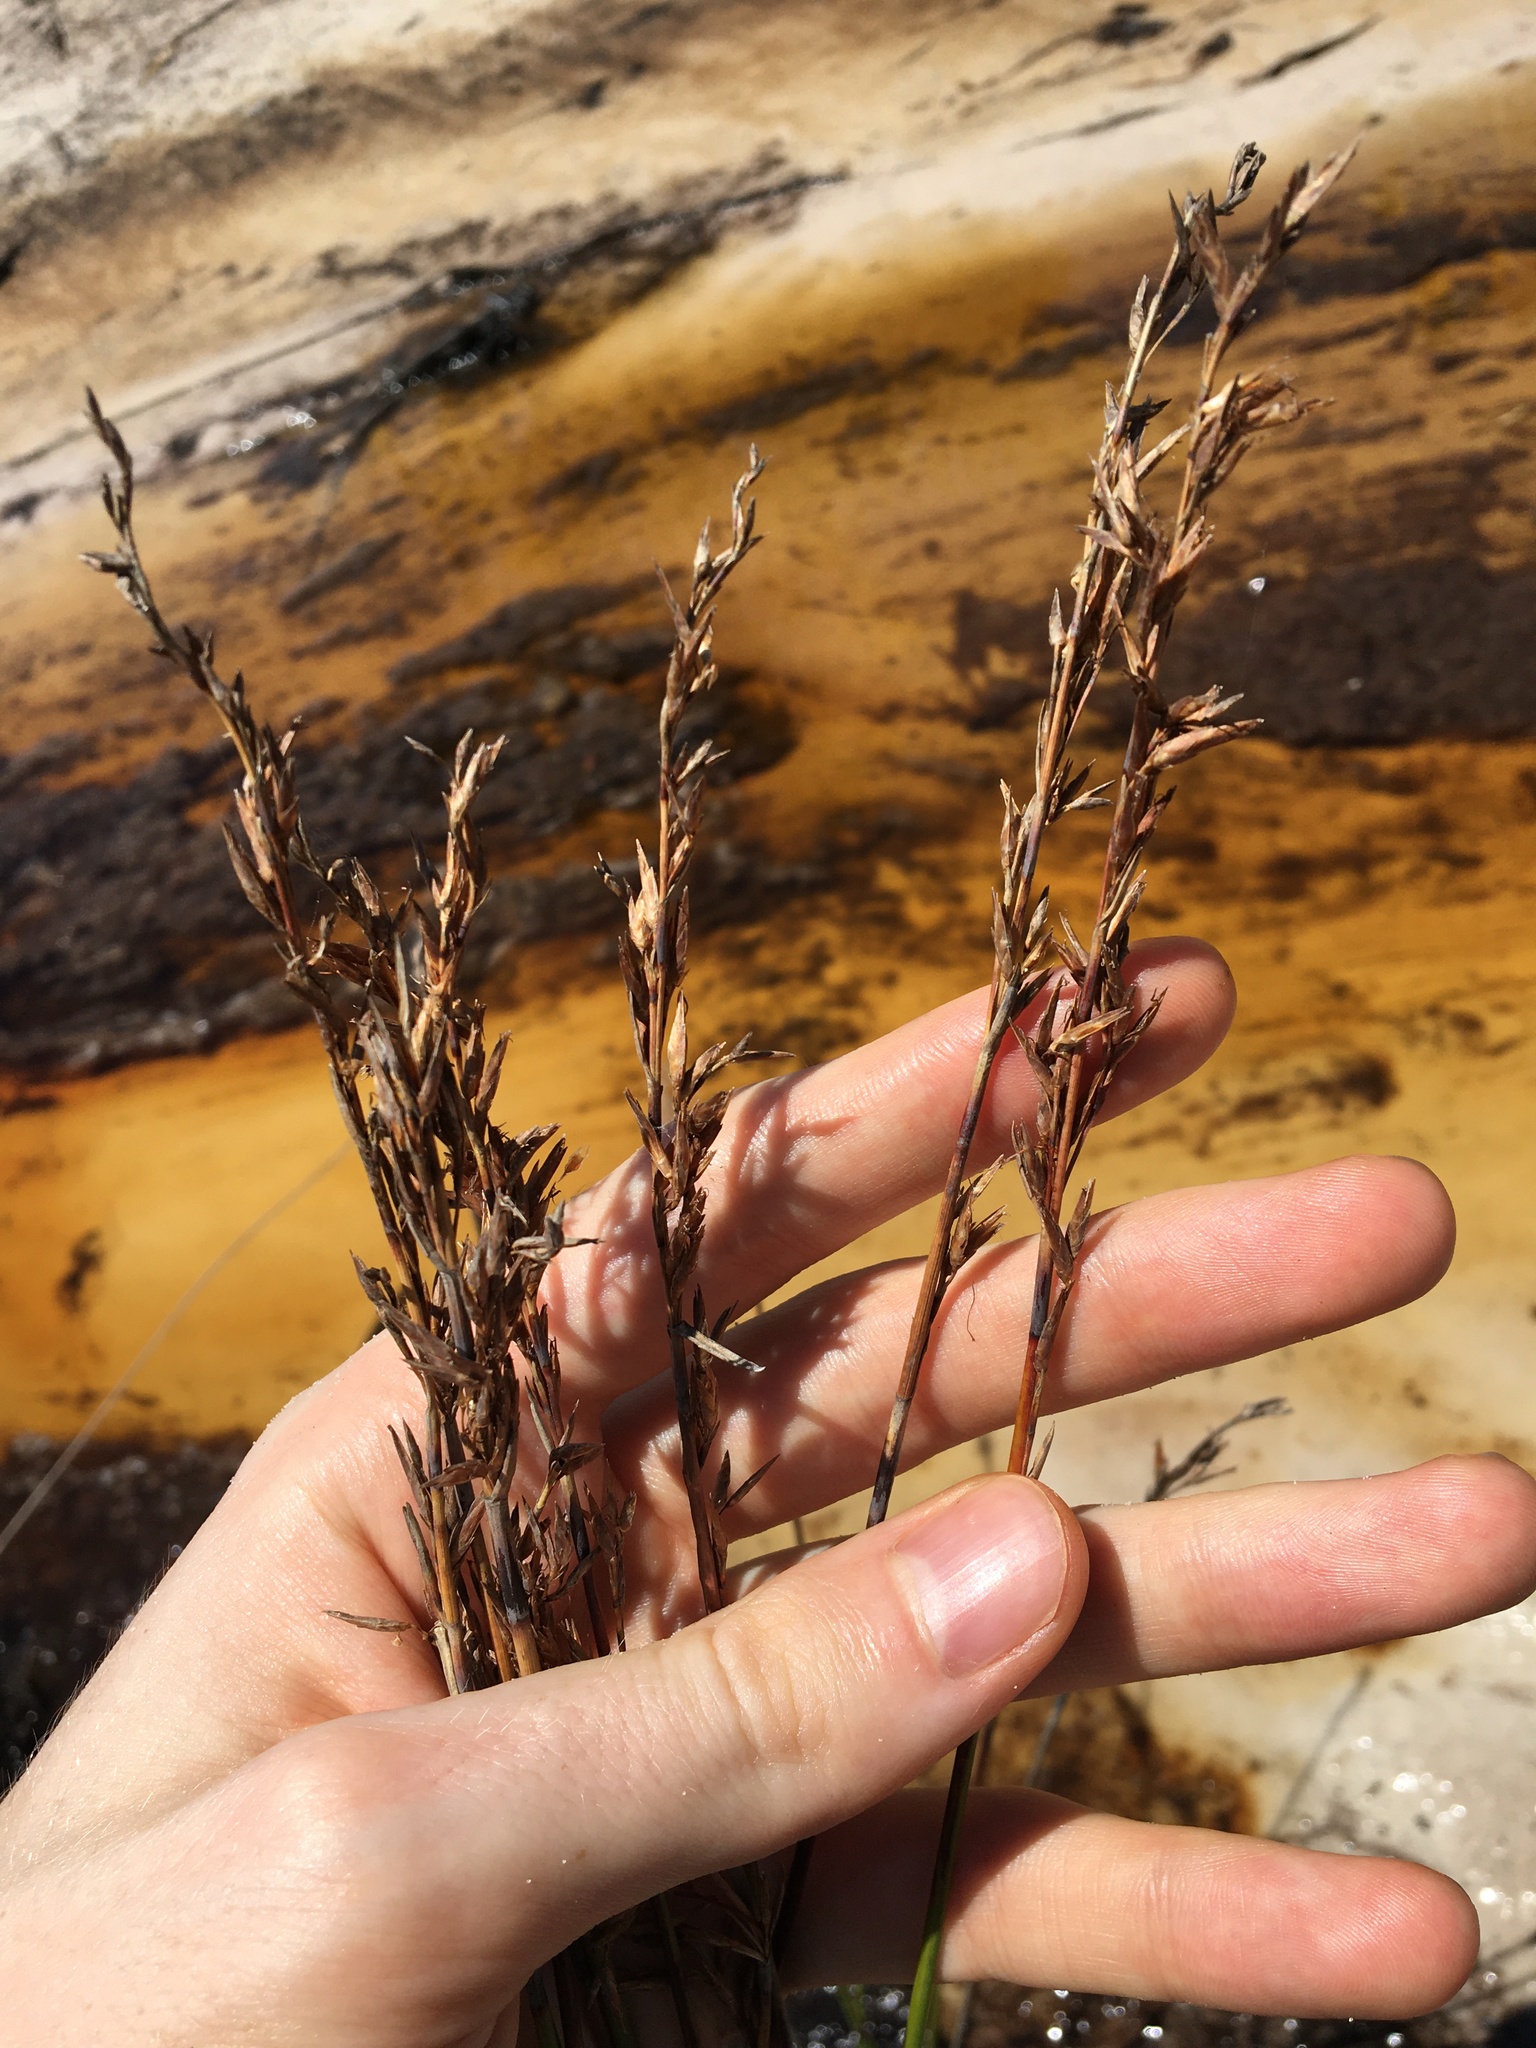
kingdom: Plantae
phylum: Tracheophyta
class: Liliopsida
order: Poales
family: Cyperaceae
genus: Schoenus
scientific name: Schoenus brevifolius
